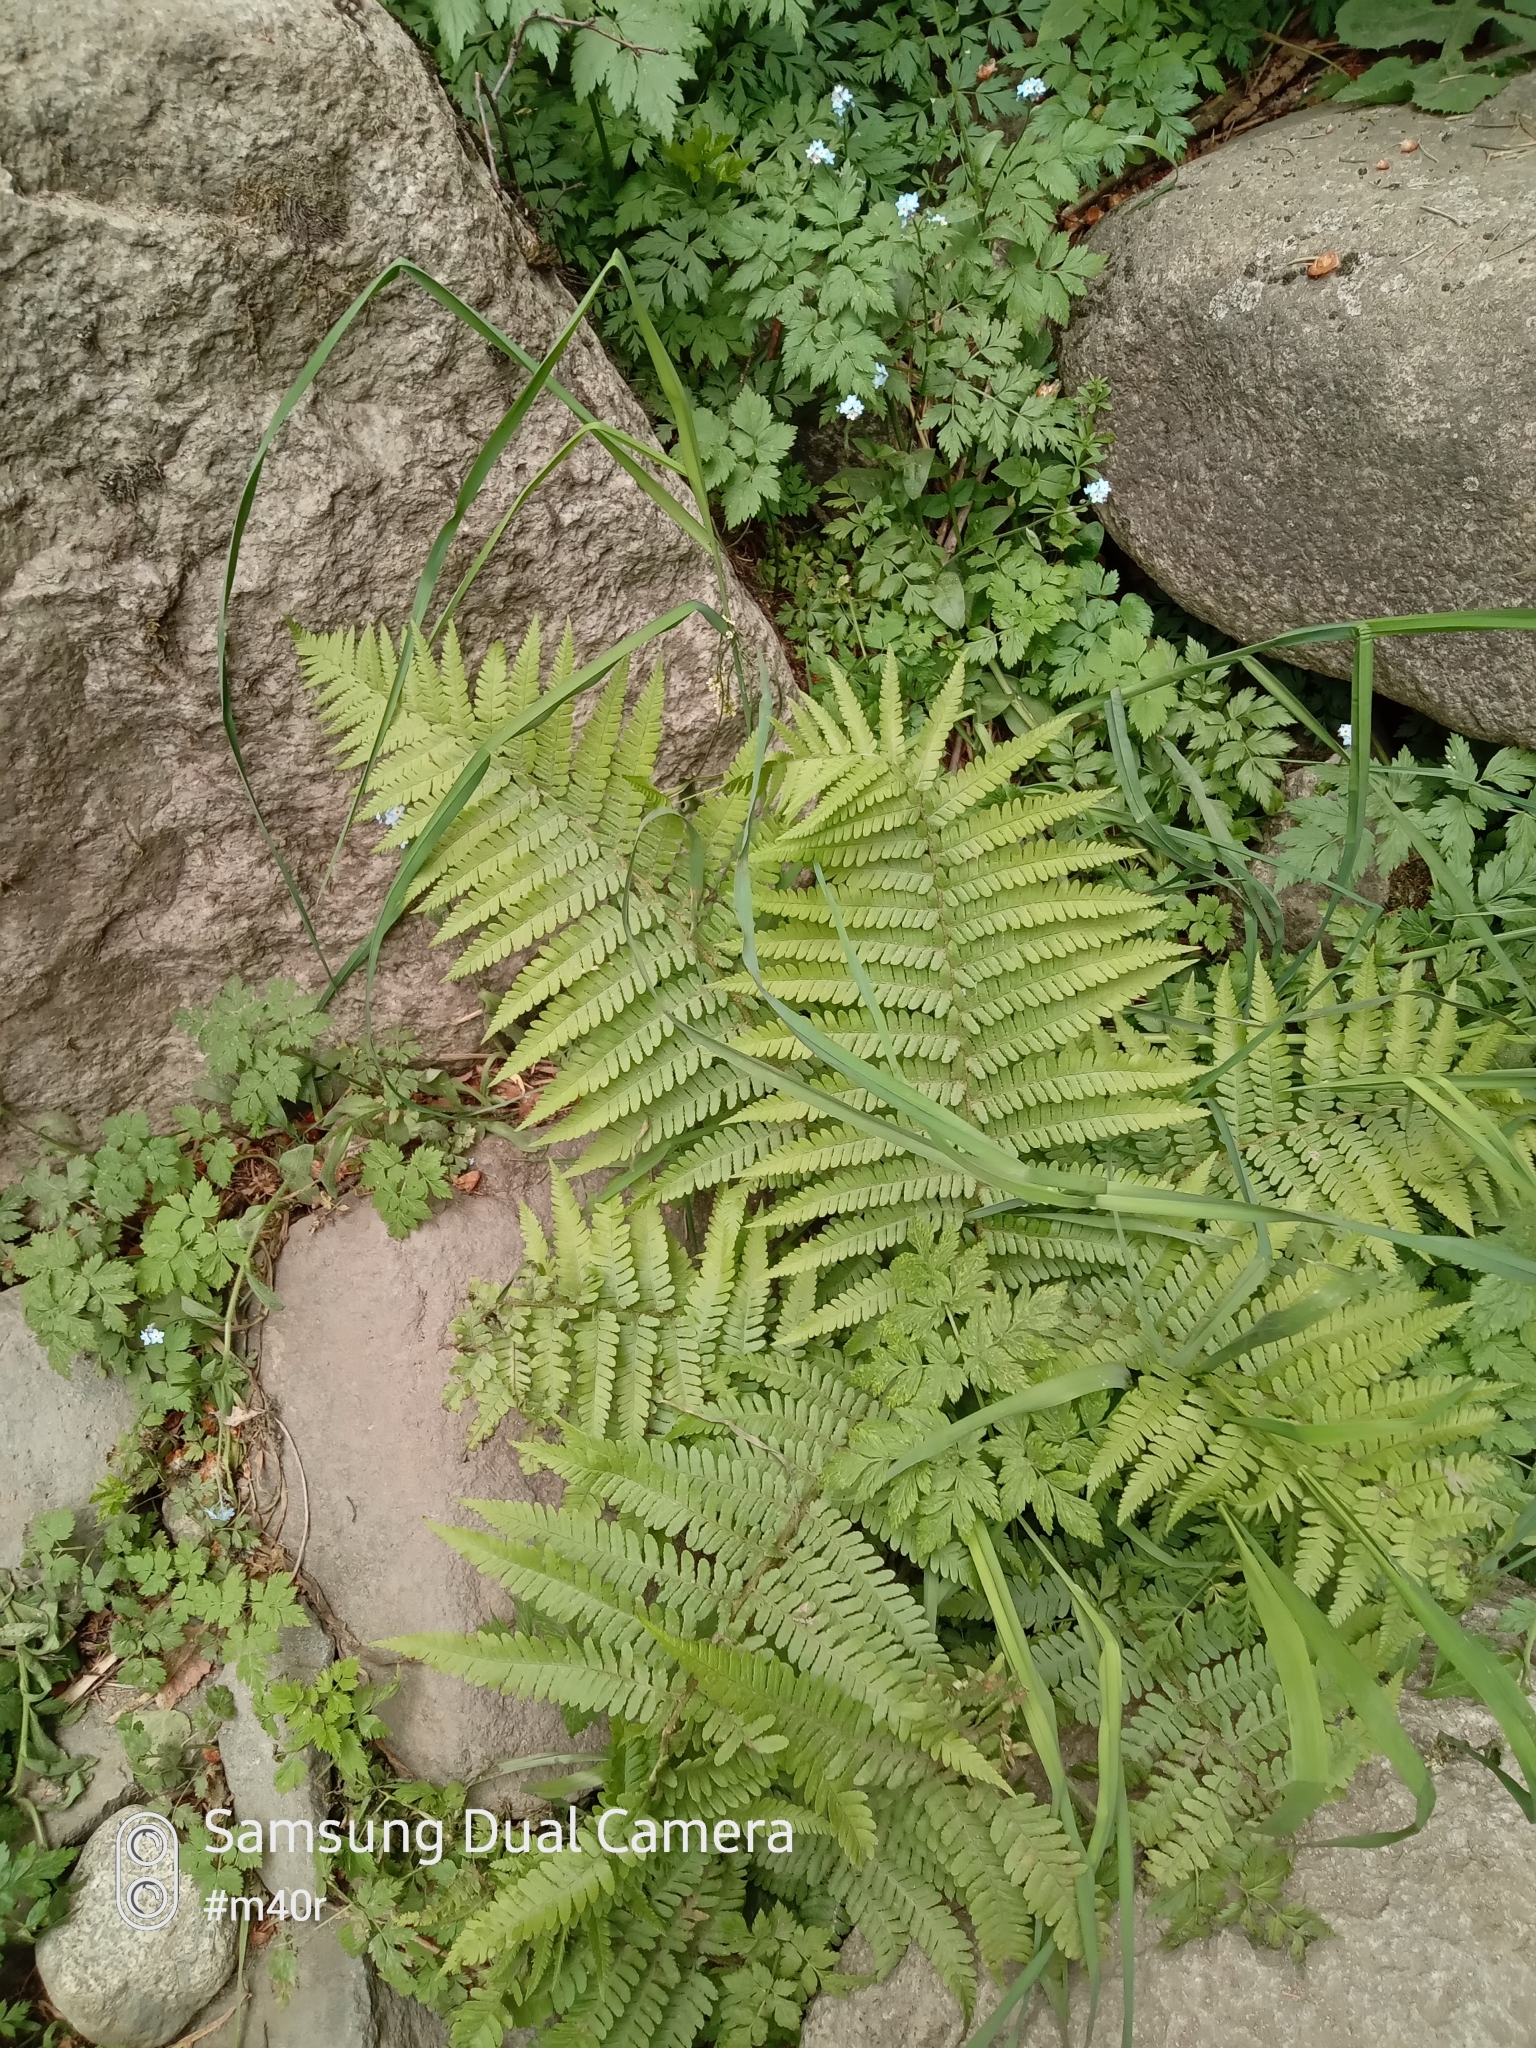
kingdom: Plantae
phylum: Tracheophyta
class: Polypodiopsida
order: Polypodiales
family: Dryopteridaceae
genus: Dryopteris
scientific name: Dryopteris filix-mas
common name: Male fern
